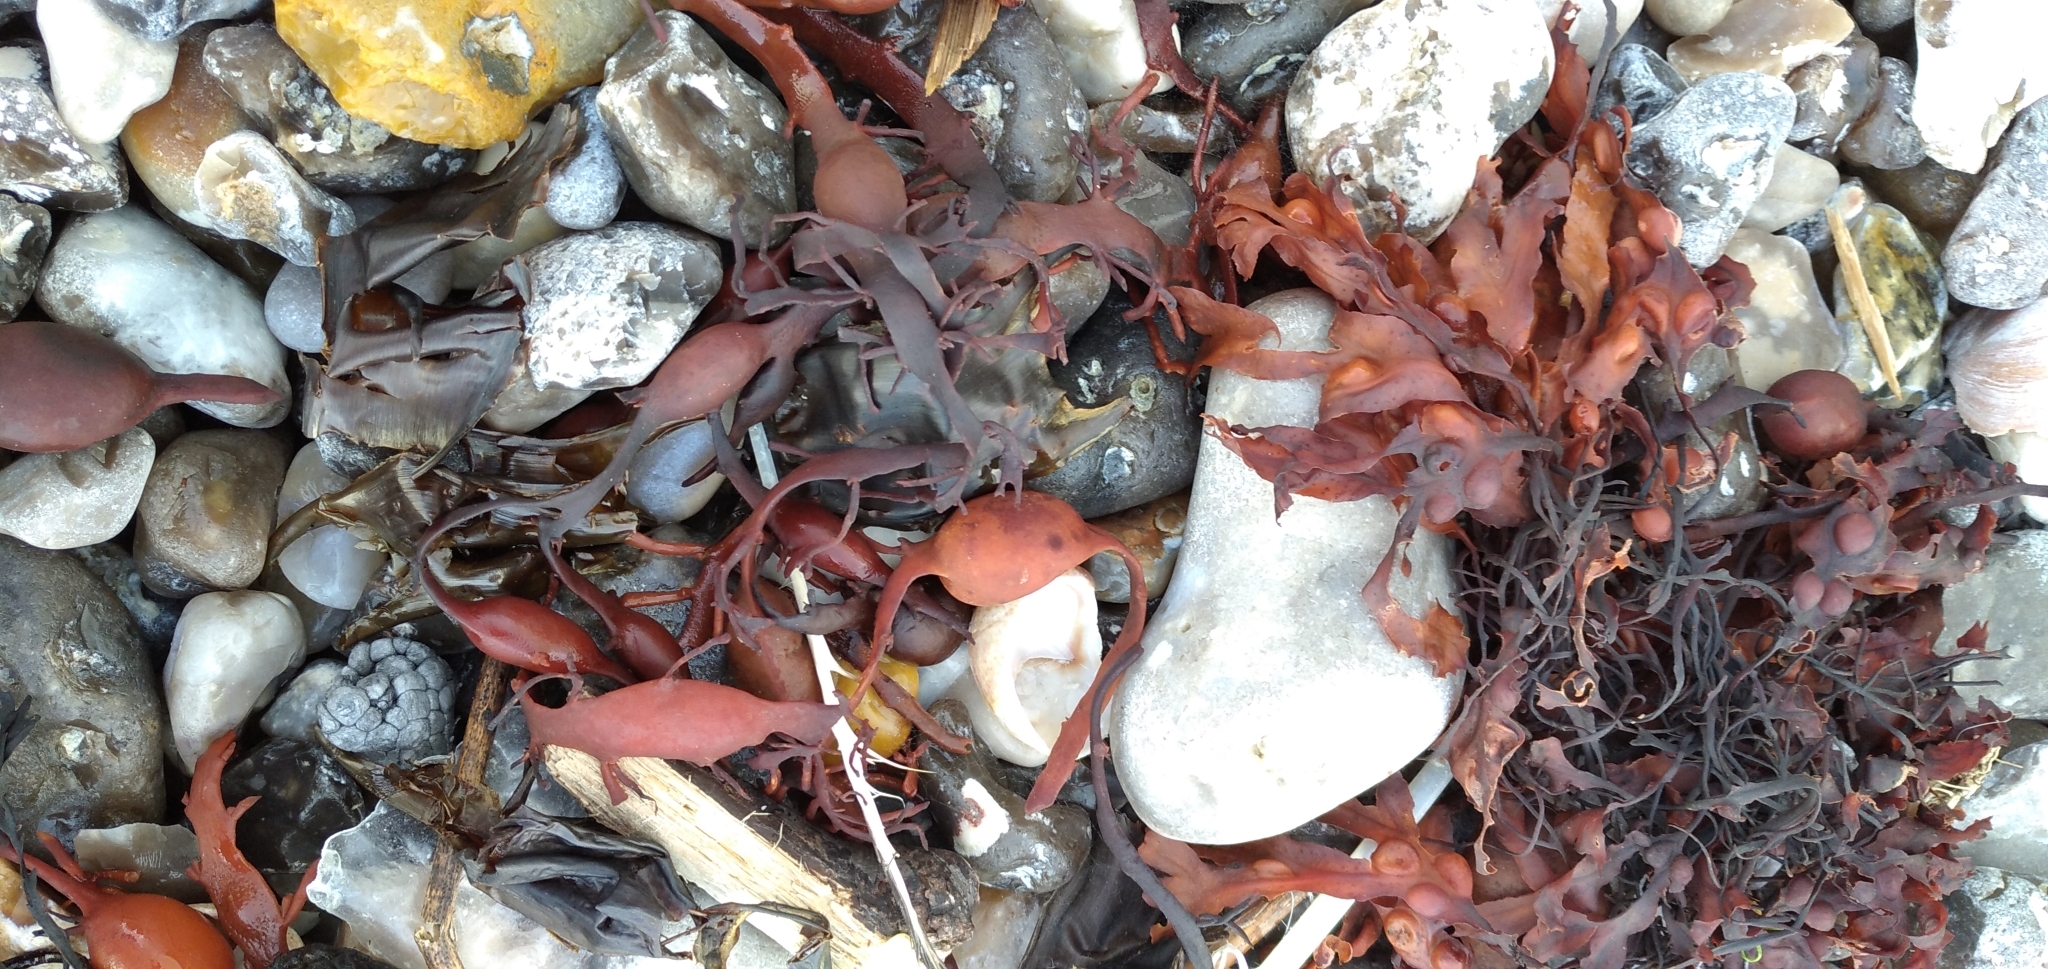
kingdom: Chromista
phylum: Ochrophyta
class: Phaeophyceae
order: Fucales
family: Fucaceae
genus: Ascophyllum
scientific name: Ascophyllum nodosum
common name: Knotted wrack
